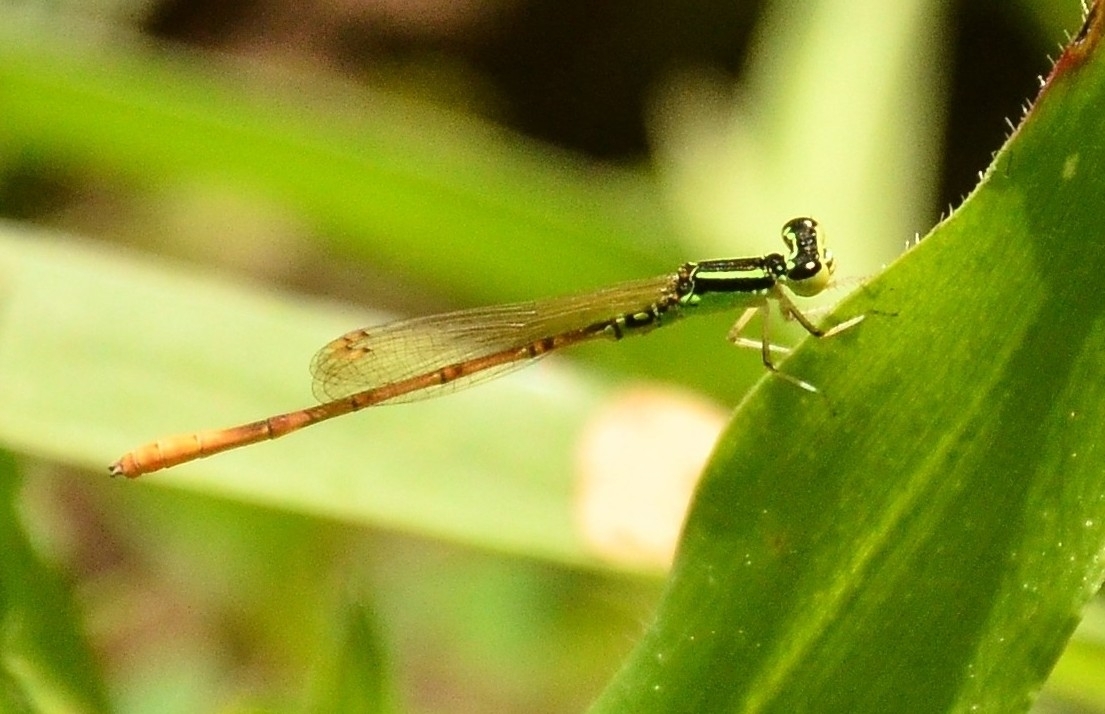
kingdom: Animalia
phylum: Arthropoda
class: Insecta
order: Odonata
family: Coenagrionidae
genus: Agriocnemis
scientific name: Agriocnemis keralensis
